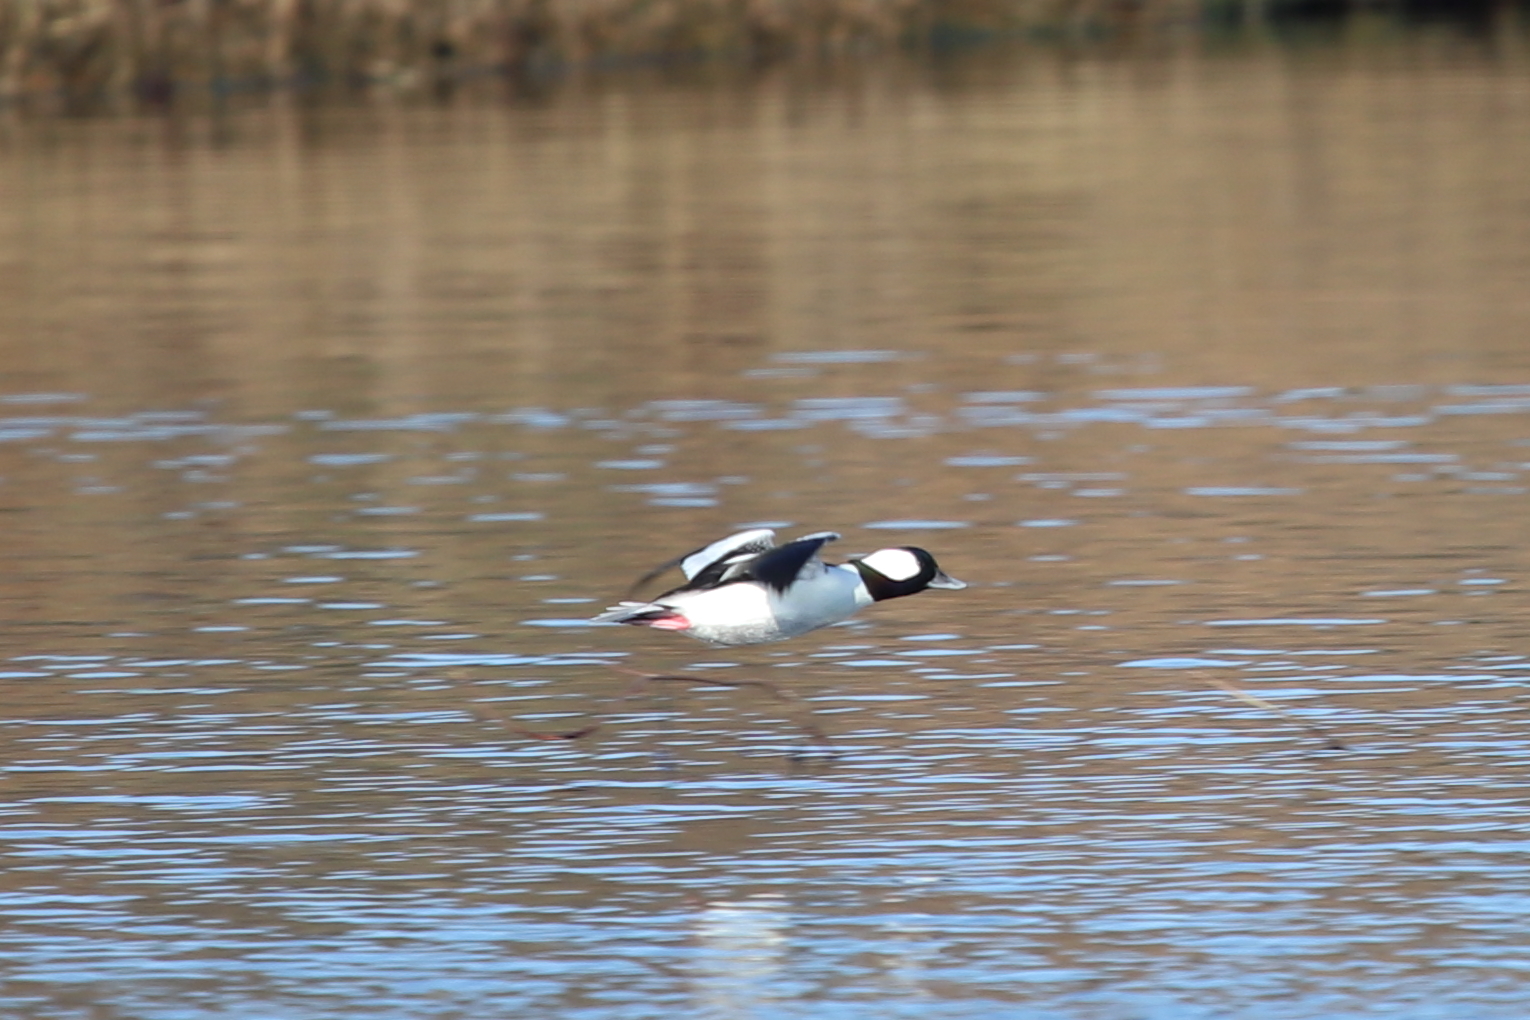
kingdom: Animalia
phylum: Chordata
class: Aves
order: Anseriformes
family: Anatidae
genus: Bucephala
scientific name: Bucephala albeola
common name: Bufflehead
